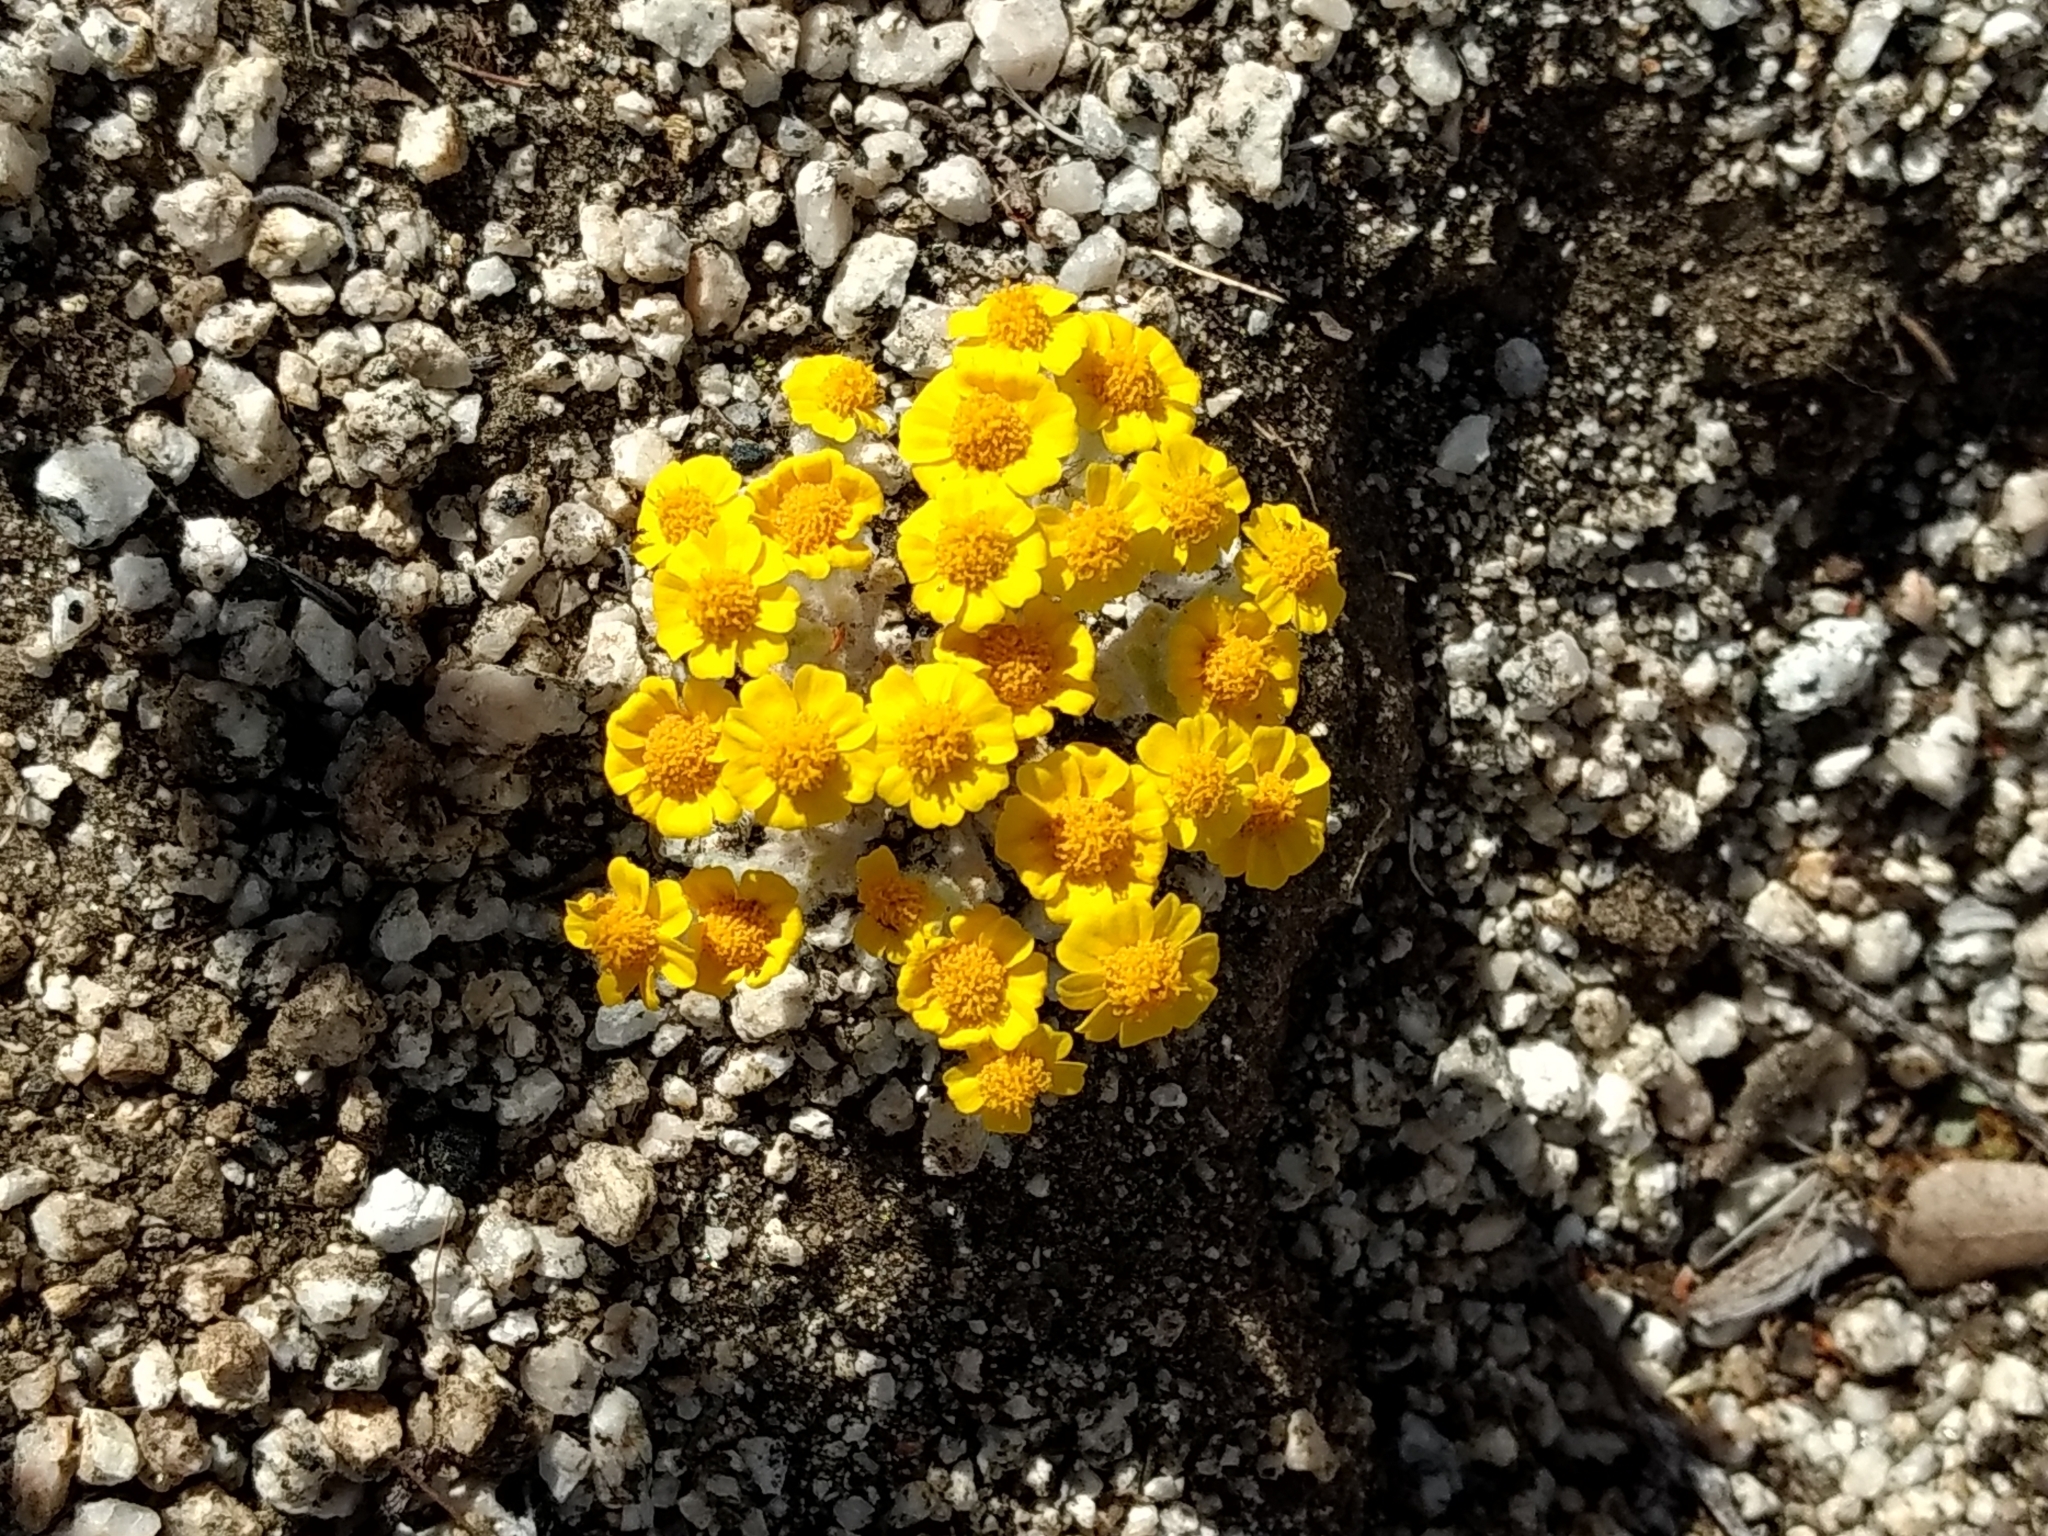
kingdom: Plantae
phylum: Tracheophyta
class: Magnoliopsida
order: Asterales
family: Asteraceae
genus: Eriophyllum
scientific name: Eriophyllum wallacei
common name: Wallace's woolly daisy
